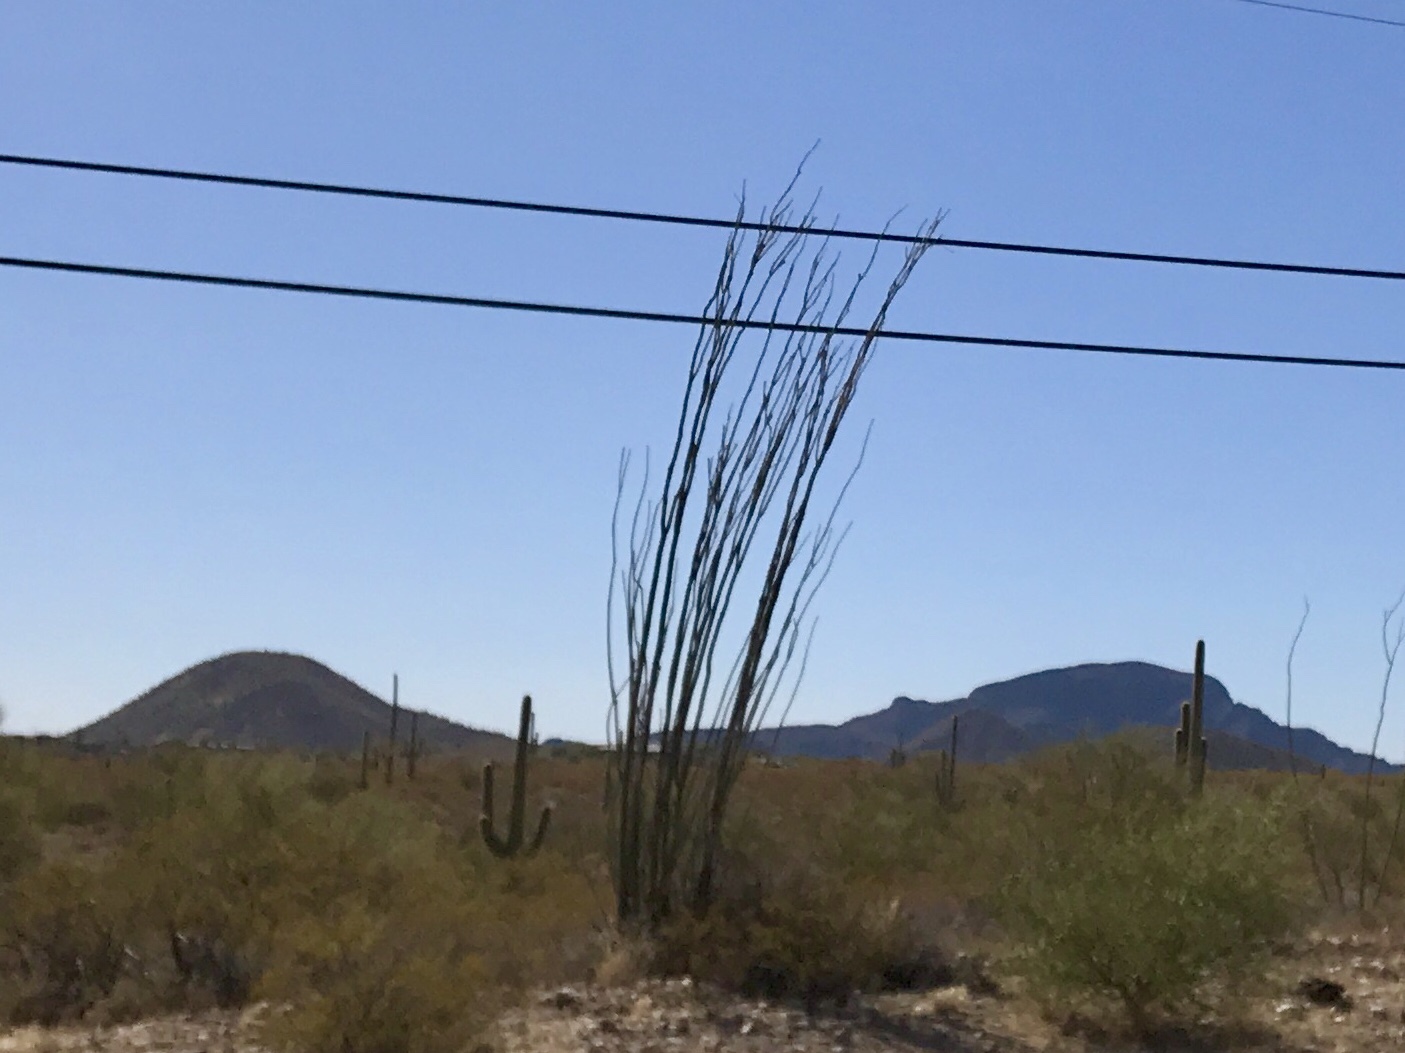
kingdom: Plantae
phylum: Tracheophyta
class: Magnoliopsida
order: Ericales
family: Fouquieriaceae
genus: Fouquieria
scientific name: Fouquieria splendens
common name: Vine-cactus
